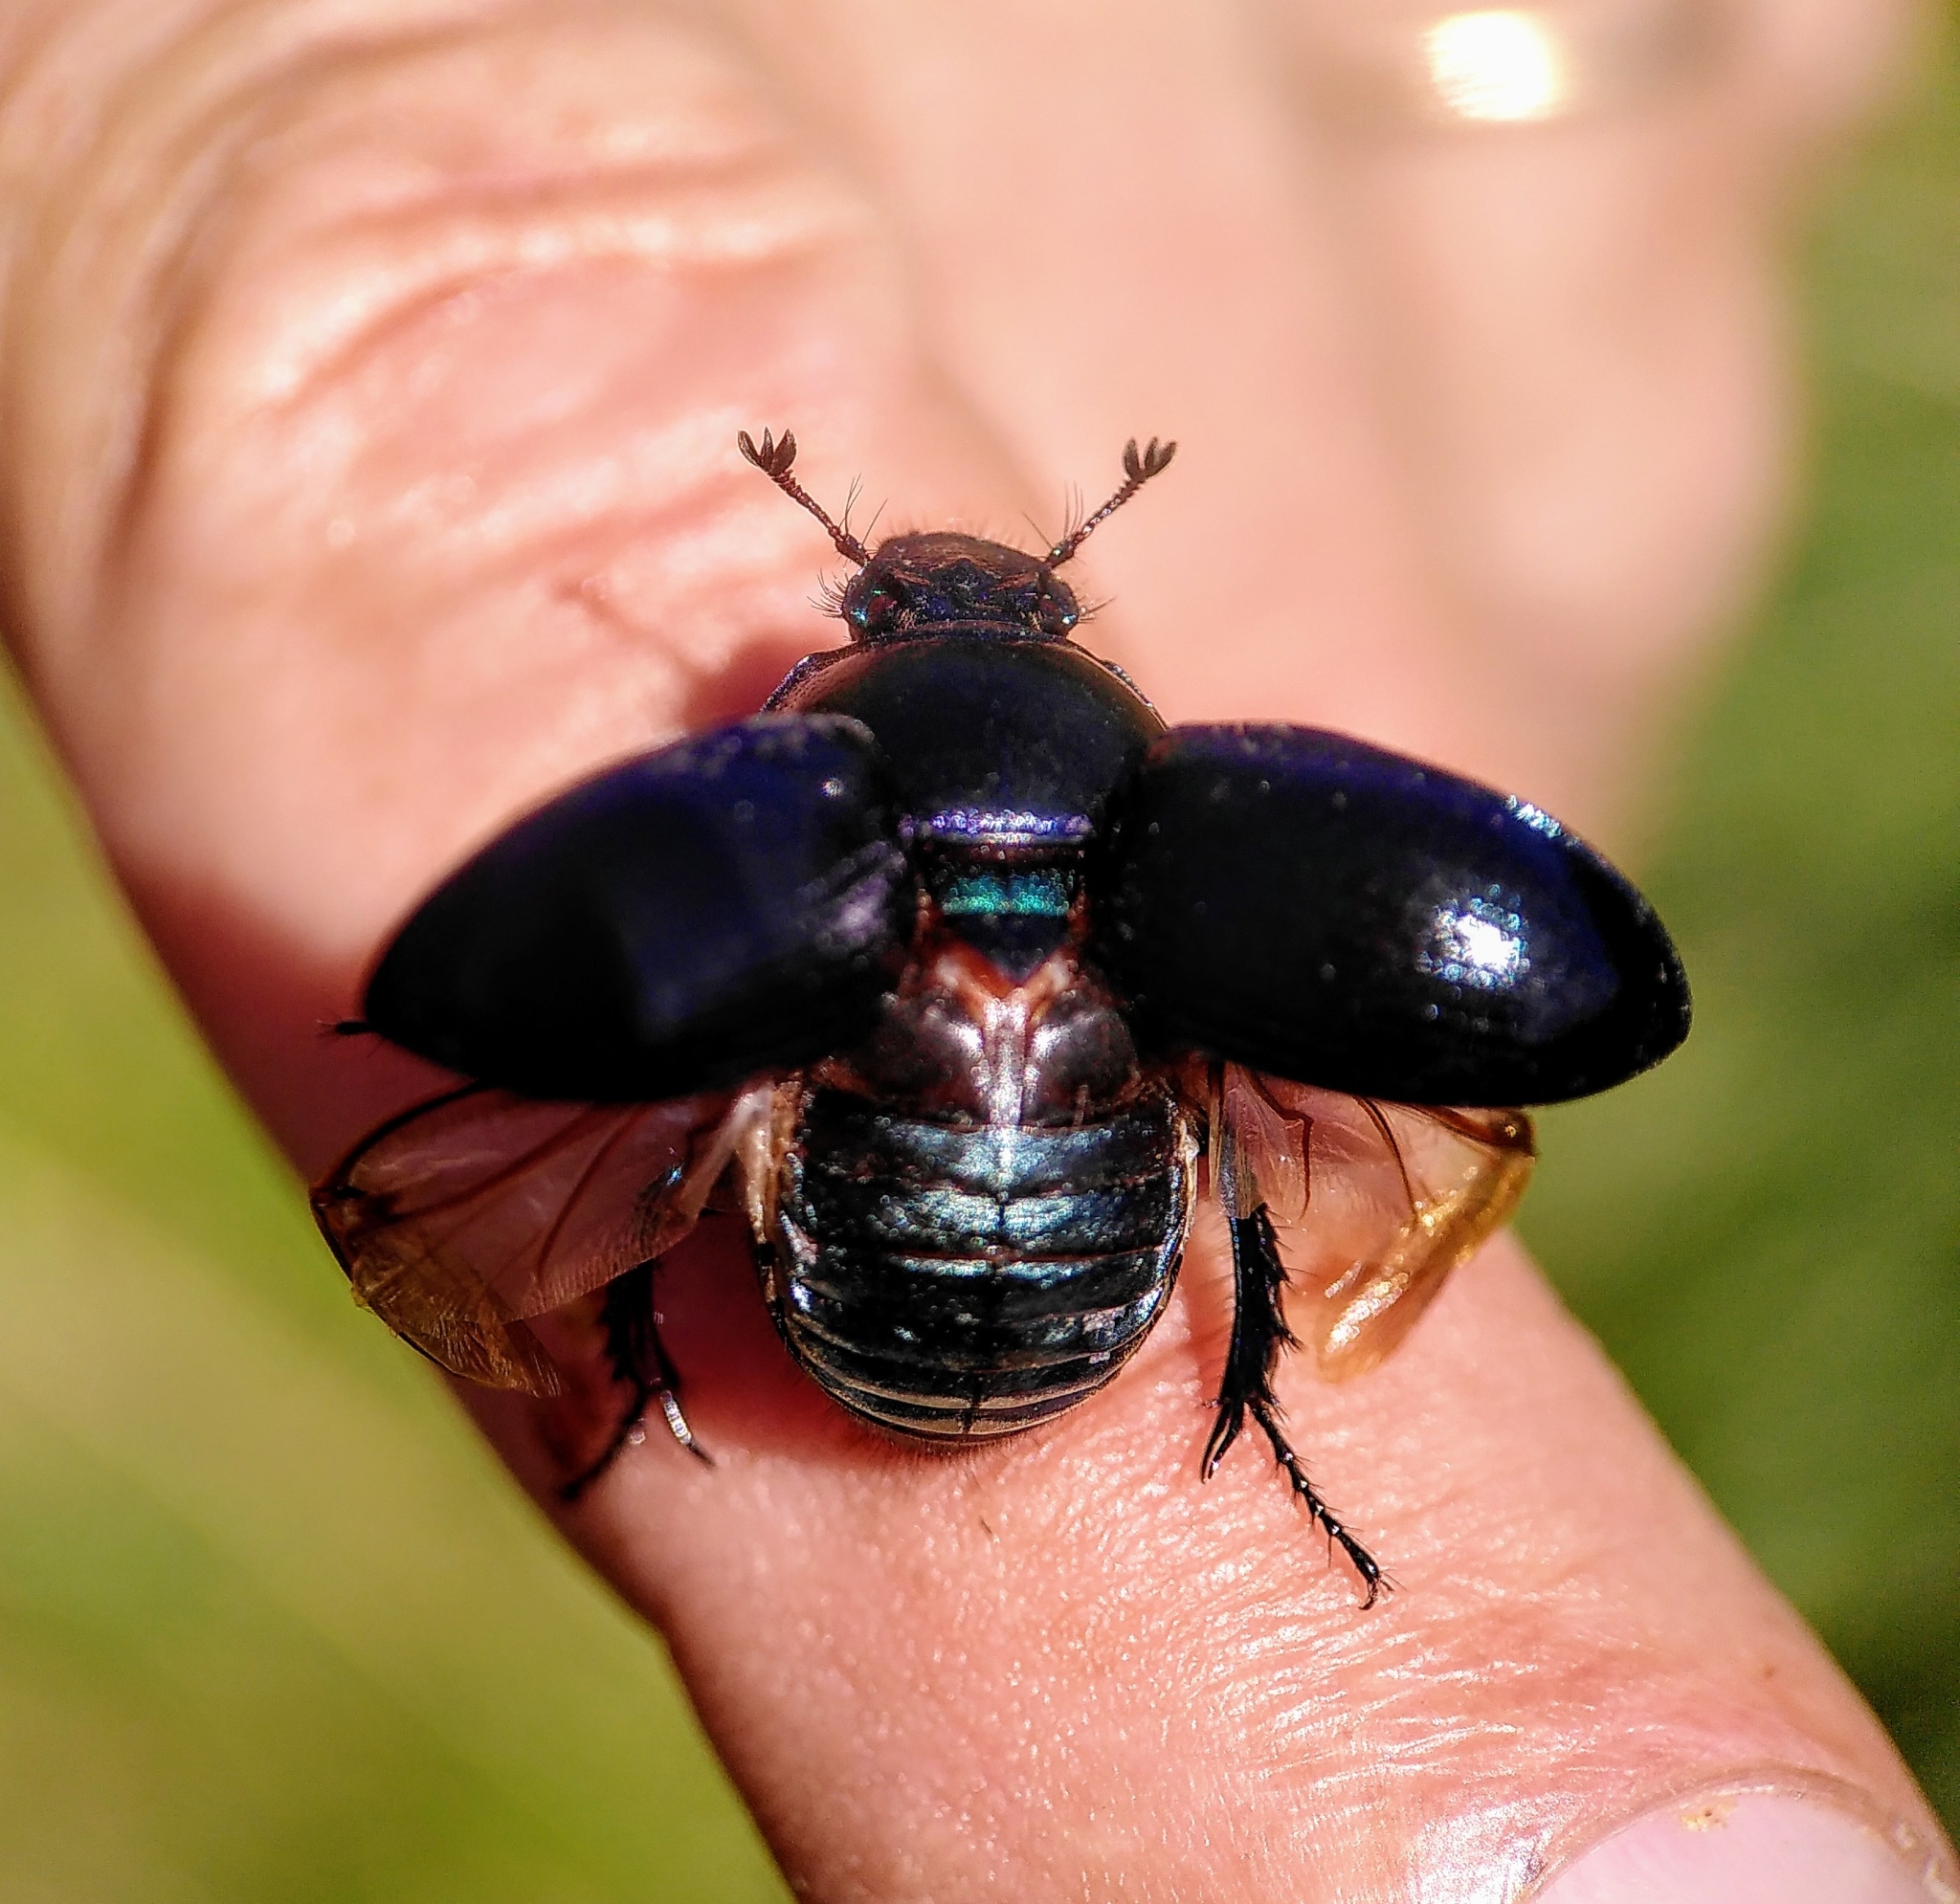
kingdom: Animalia
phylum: Arthropoda
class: Insecta
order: Coleoptera
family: Geotrupidae
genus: Anoplotrupes
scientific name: Anoplotrupes stercorosus
